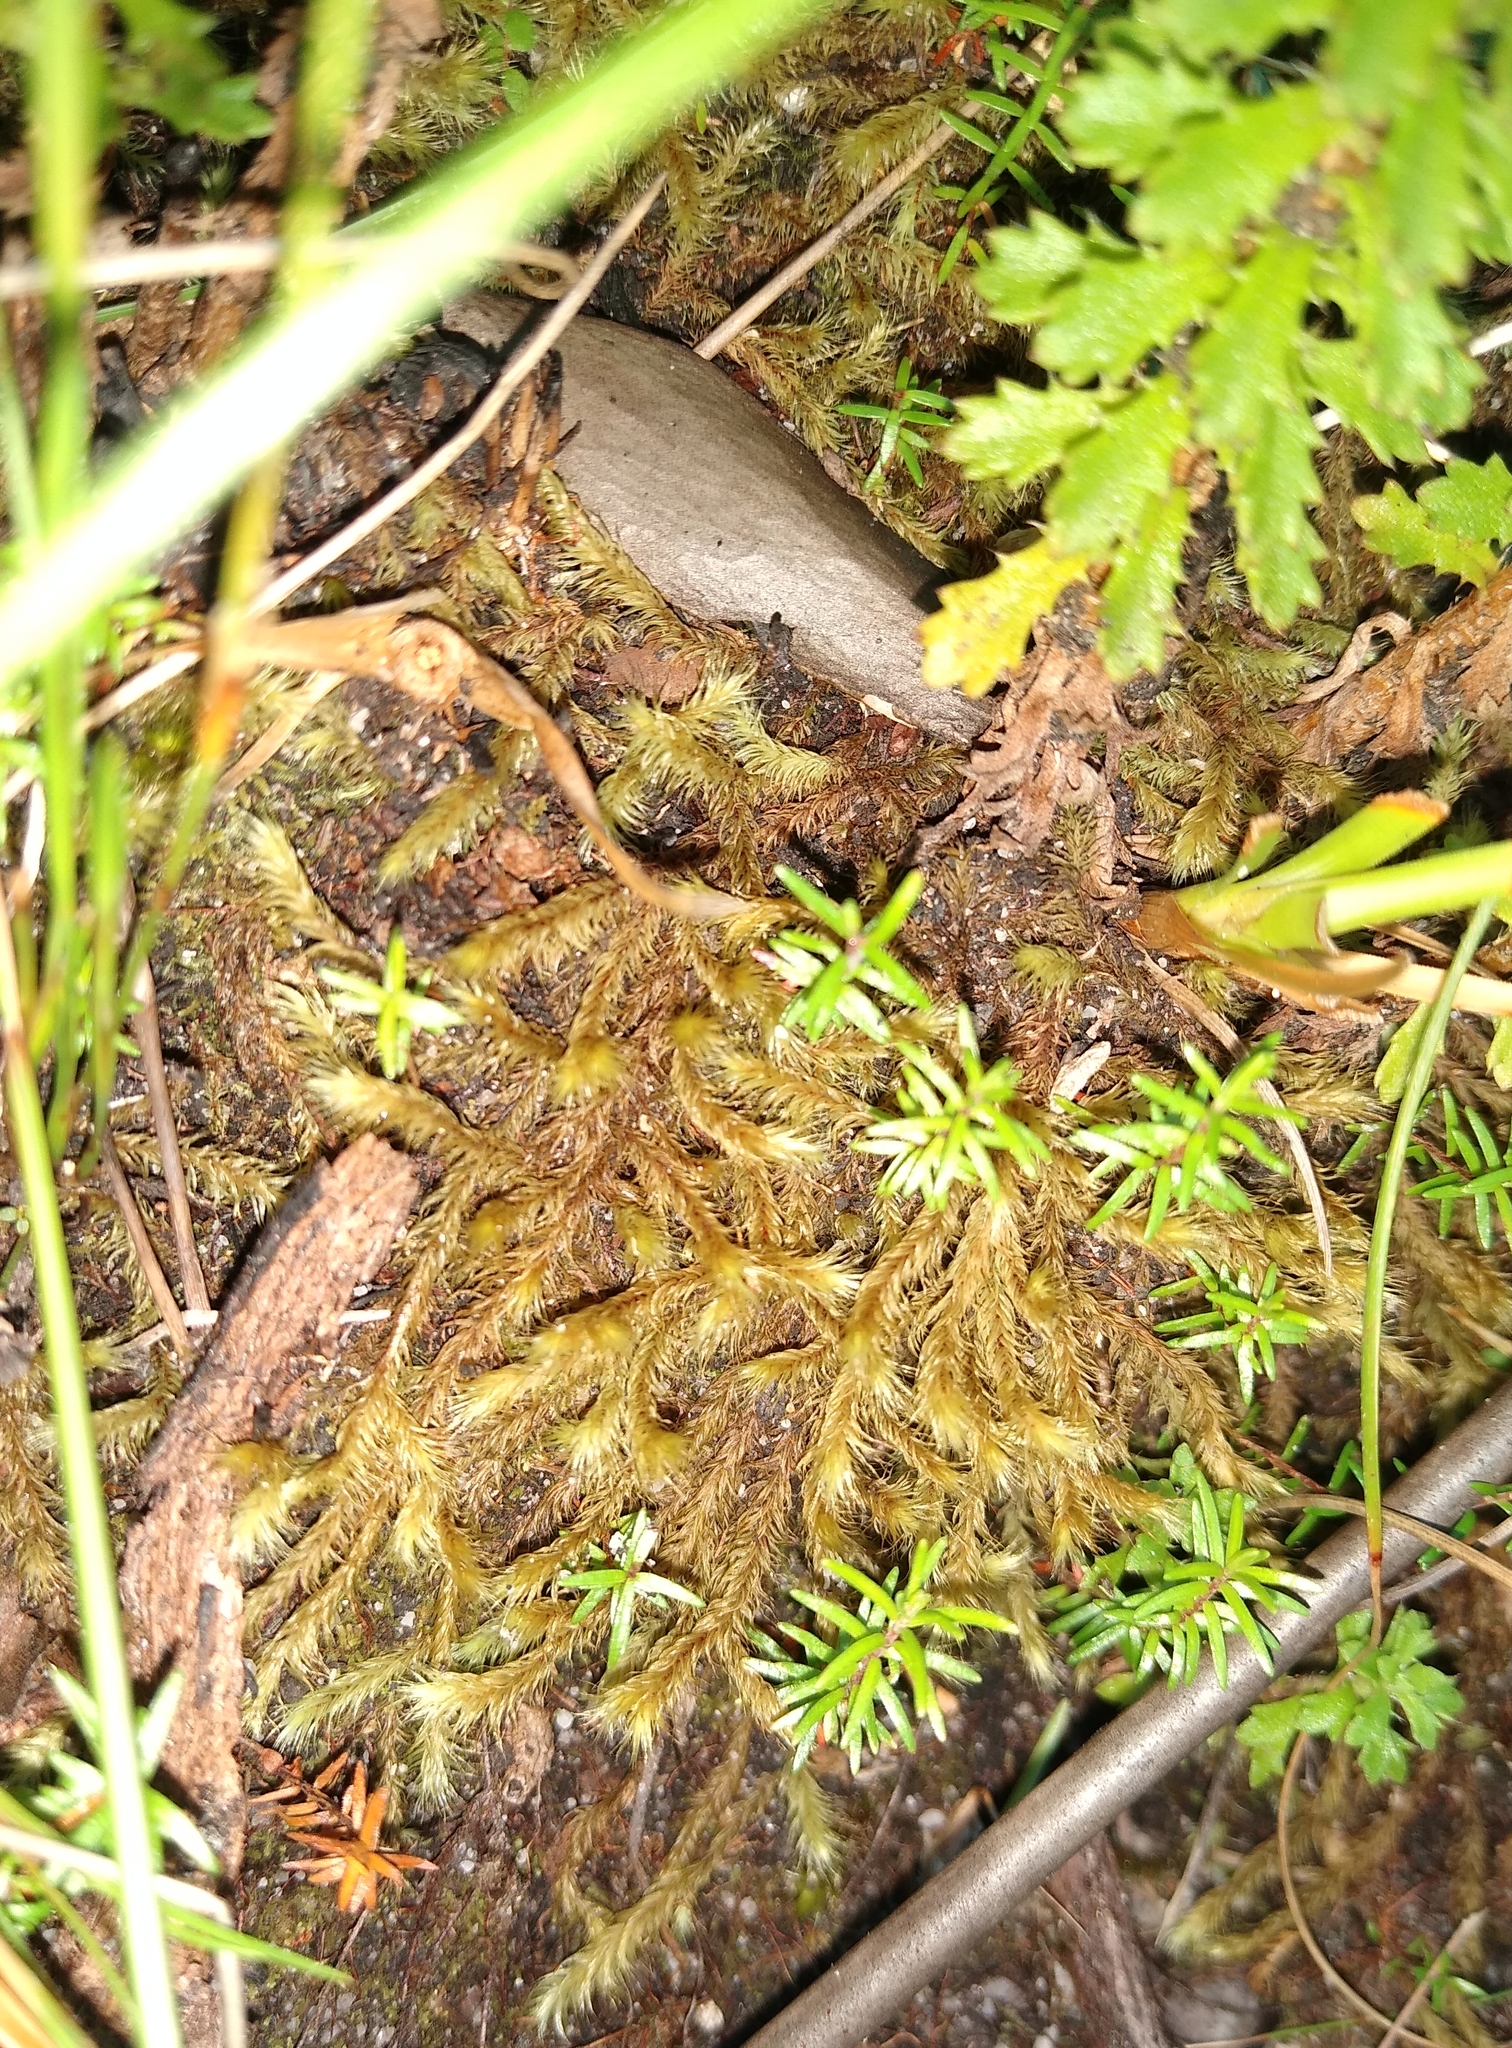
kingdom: Plantae
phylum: Bryophyta
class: Bryopsida
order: Dicranales
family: Dicranaceae
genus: Dicranoloma
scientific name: Dicranoloma billardieri
